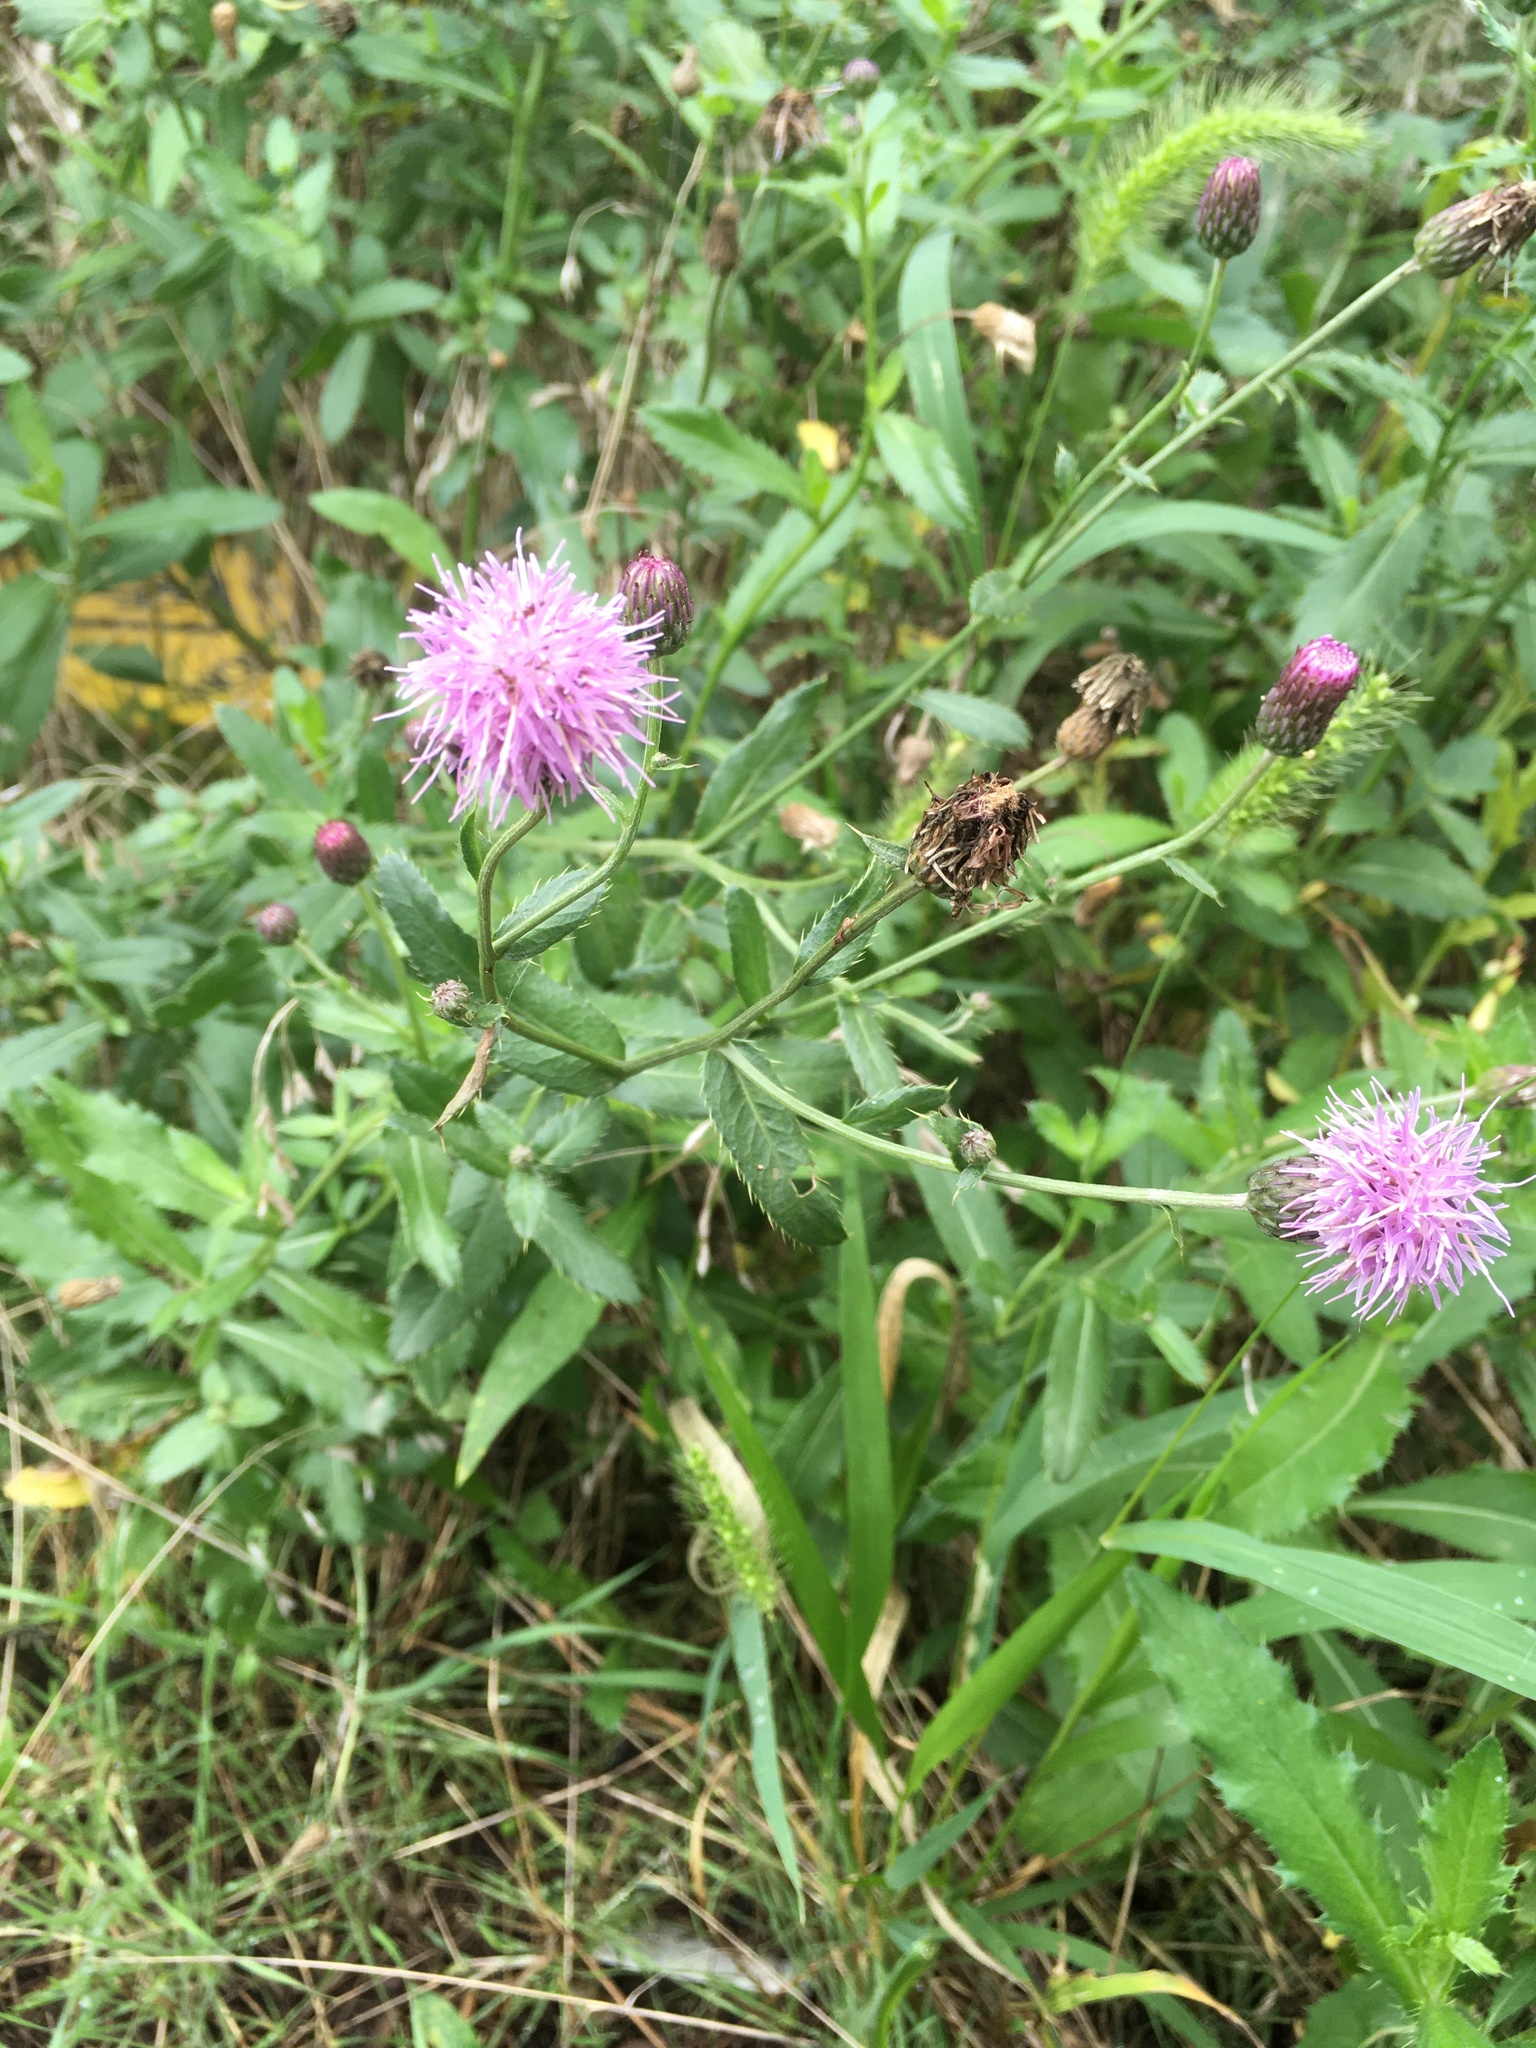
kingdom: Plantae
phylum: Tracheophyta
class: Magnoliopsida
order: Asterales
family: Asteraceae
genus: Cirsium
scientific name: Cirsium arvense
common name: Creeping thistle
